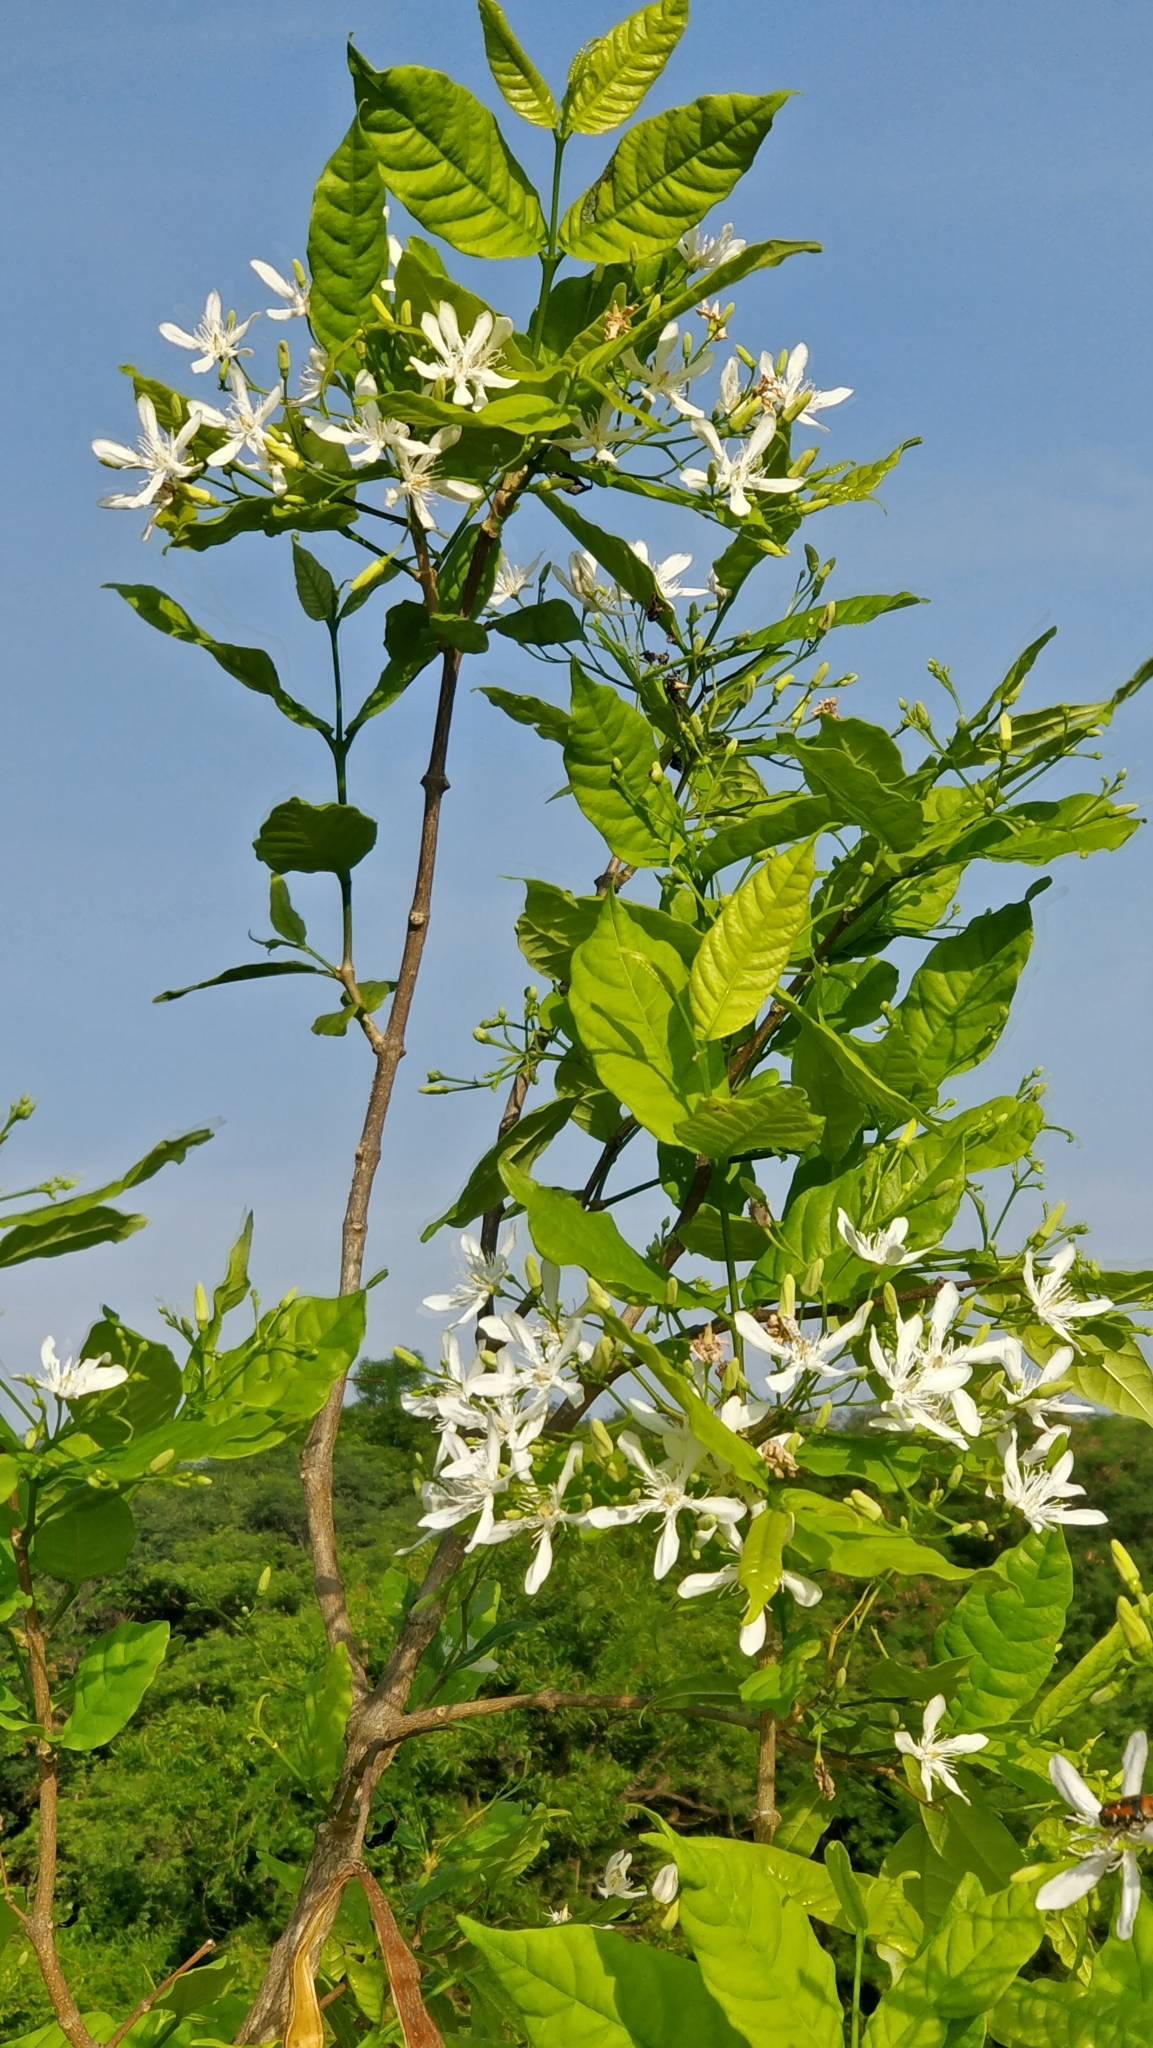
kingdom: Plantae
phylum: Tracheophyta
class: Magnoliopsida
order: Gentianales
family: Apocynaceae
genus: Wrightia
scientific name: Wrightia tinctoria
